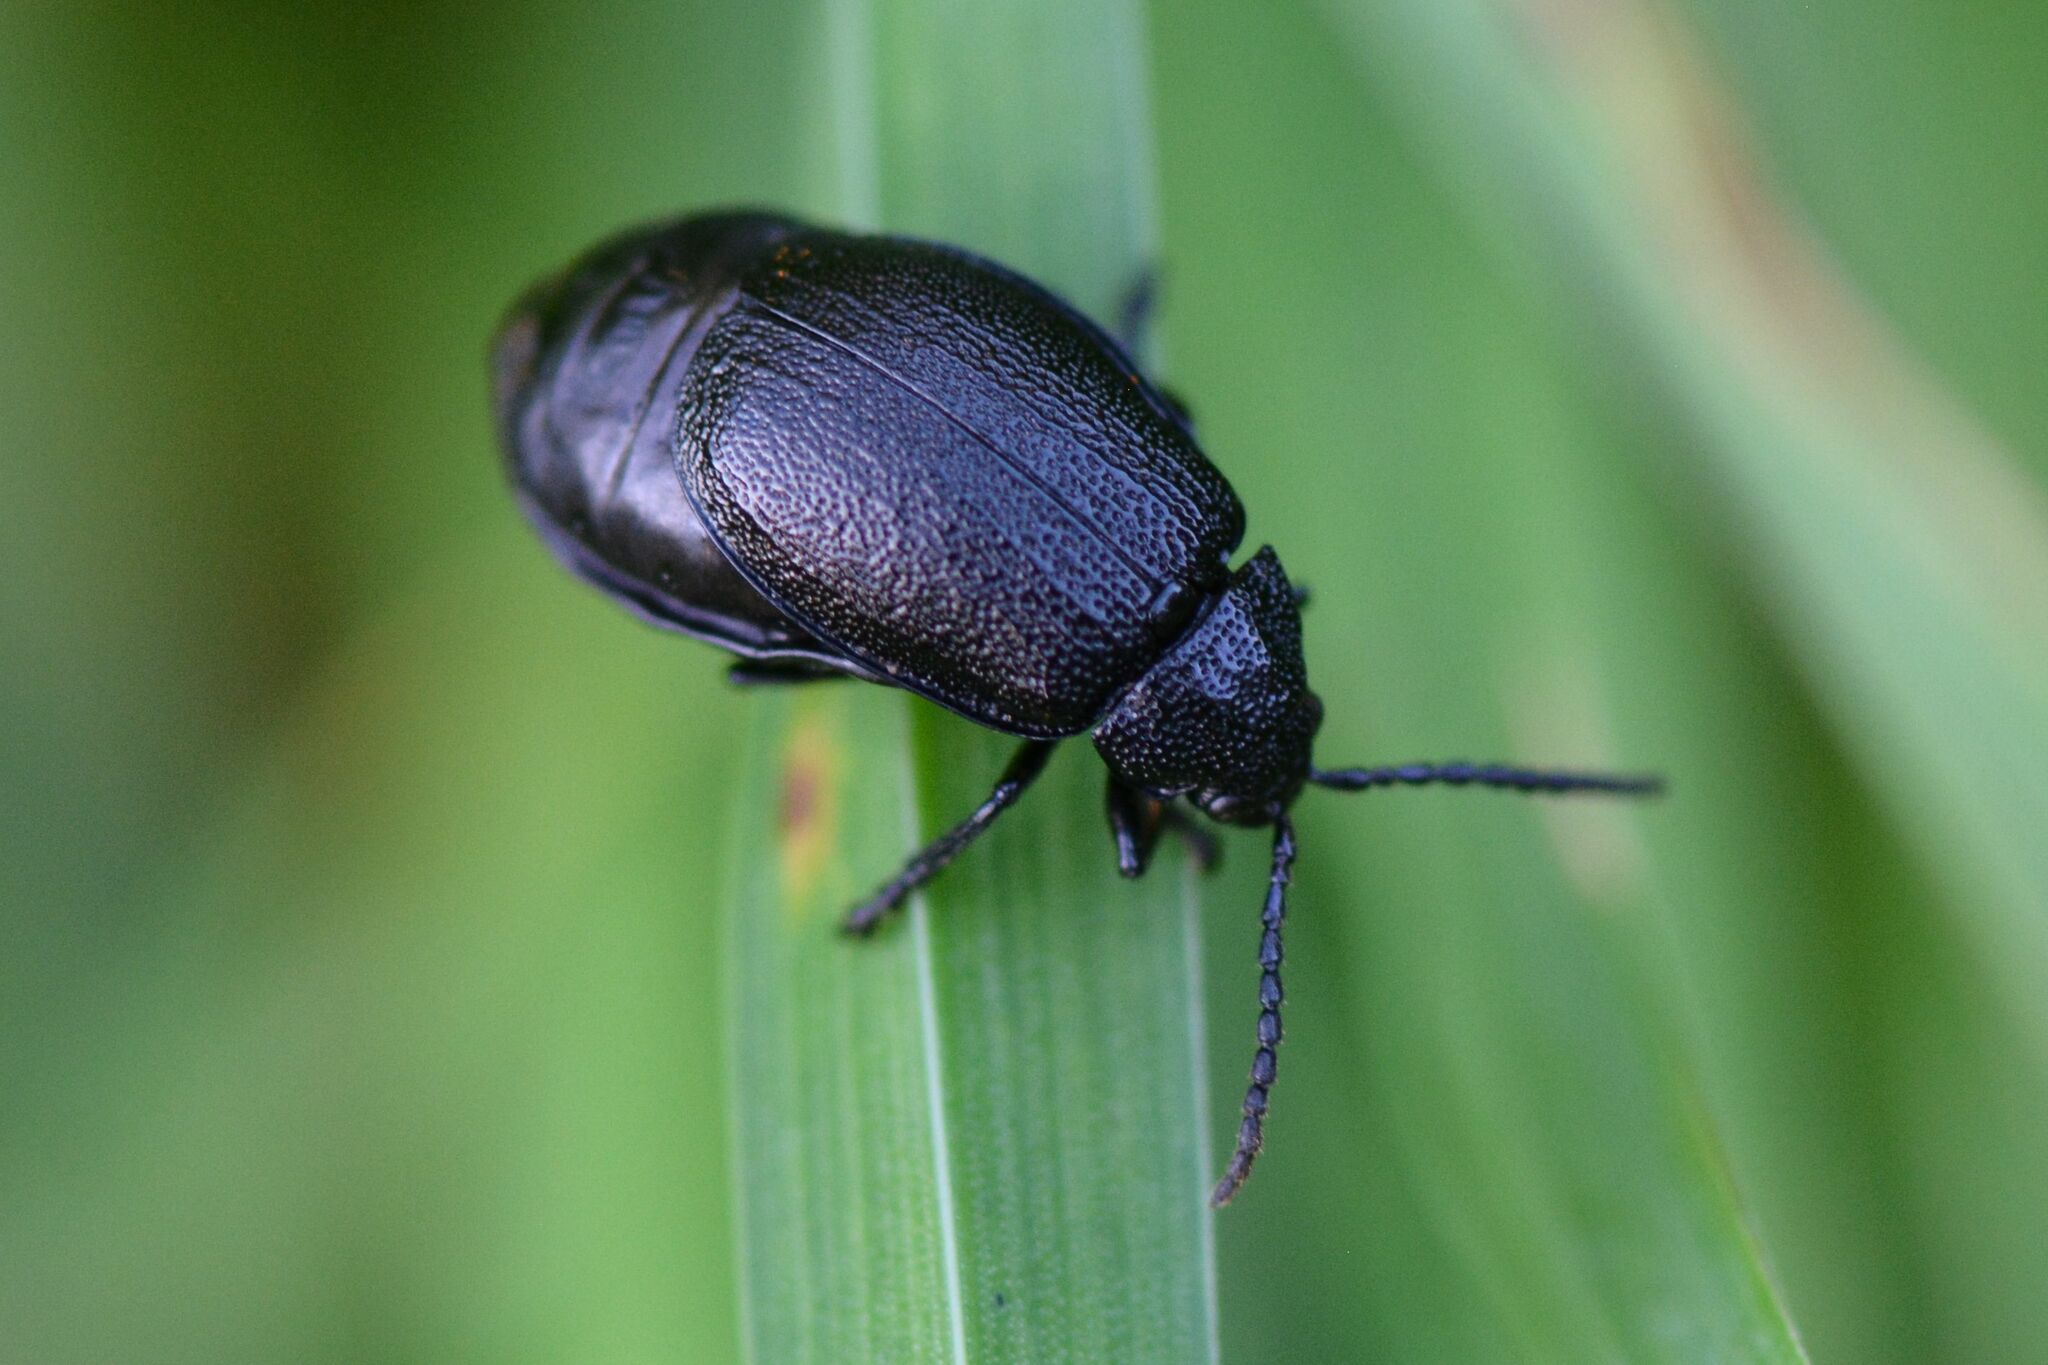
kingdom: Animalia
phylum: Arthropoda
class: Insecta
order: Coleoptera
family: Chrysomelidae
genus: Galeruca
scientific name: Galeruca tanaceti
